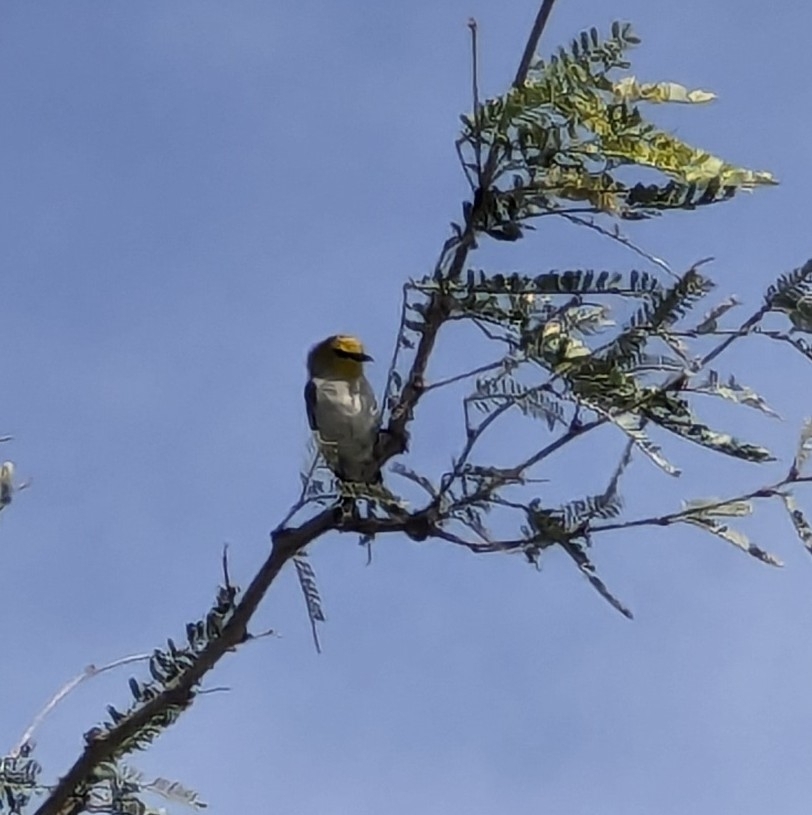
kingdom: Animalia
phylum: Chordata
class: Aves
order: Passeriformes
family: Remizidae
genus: Auriparus
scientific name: Auriparus flaviceps
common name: Verdin
